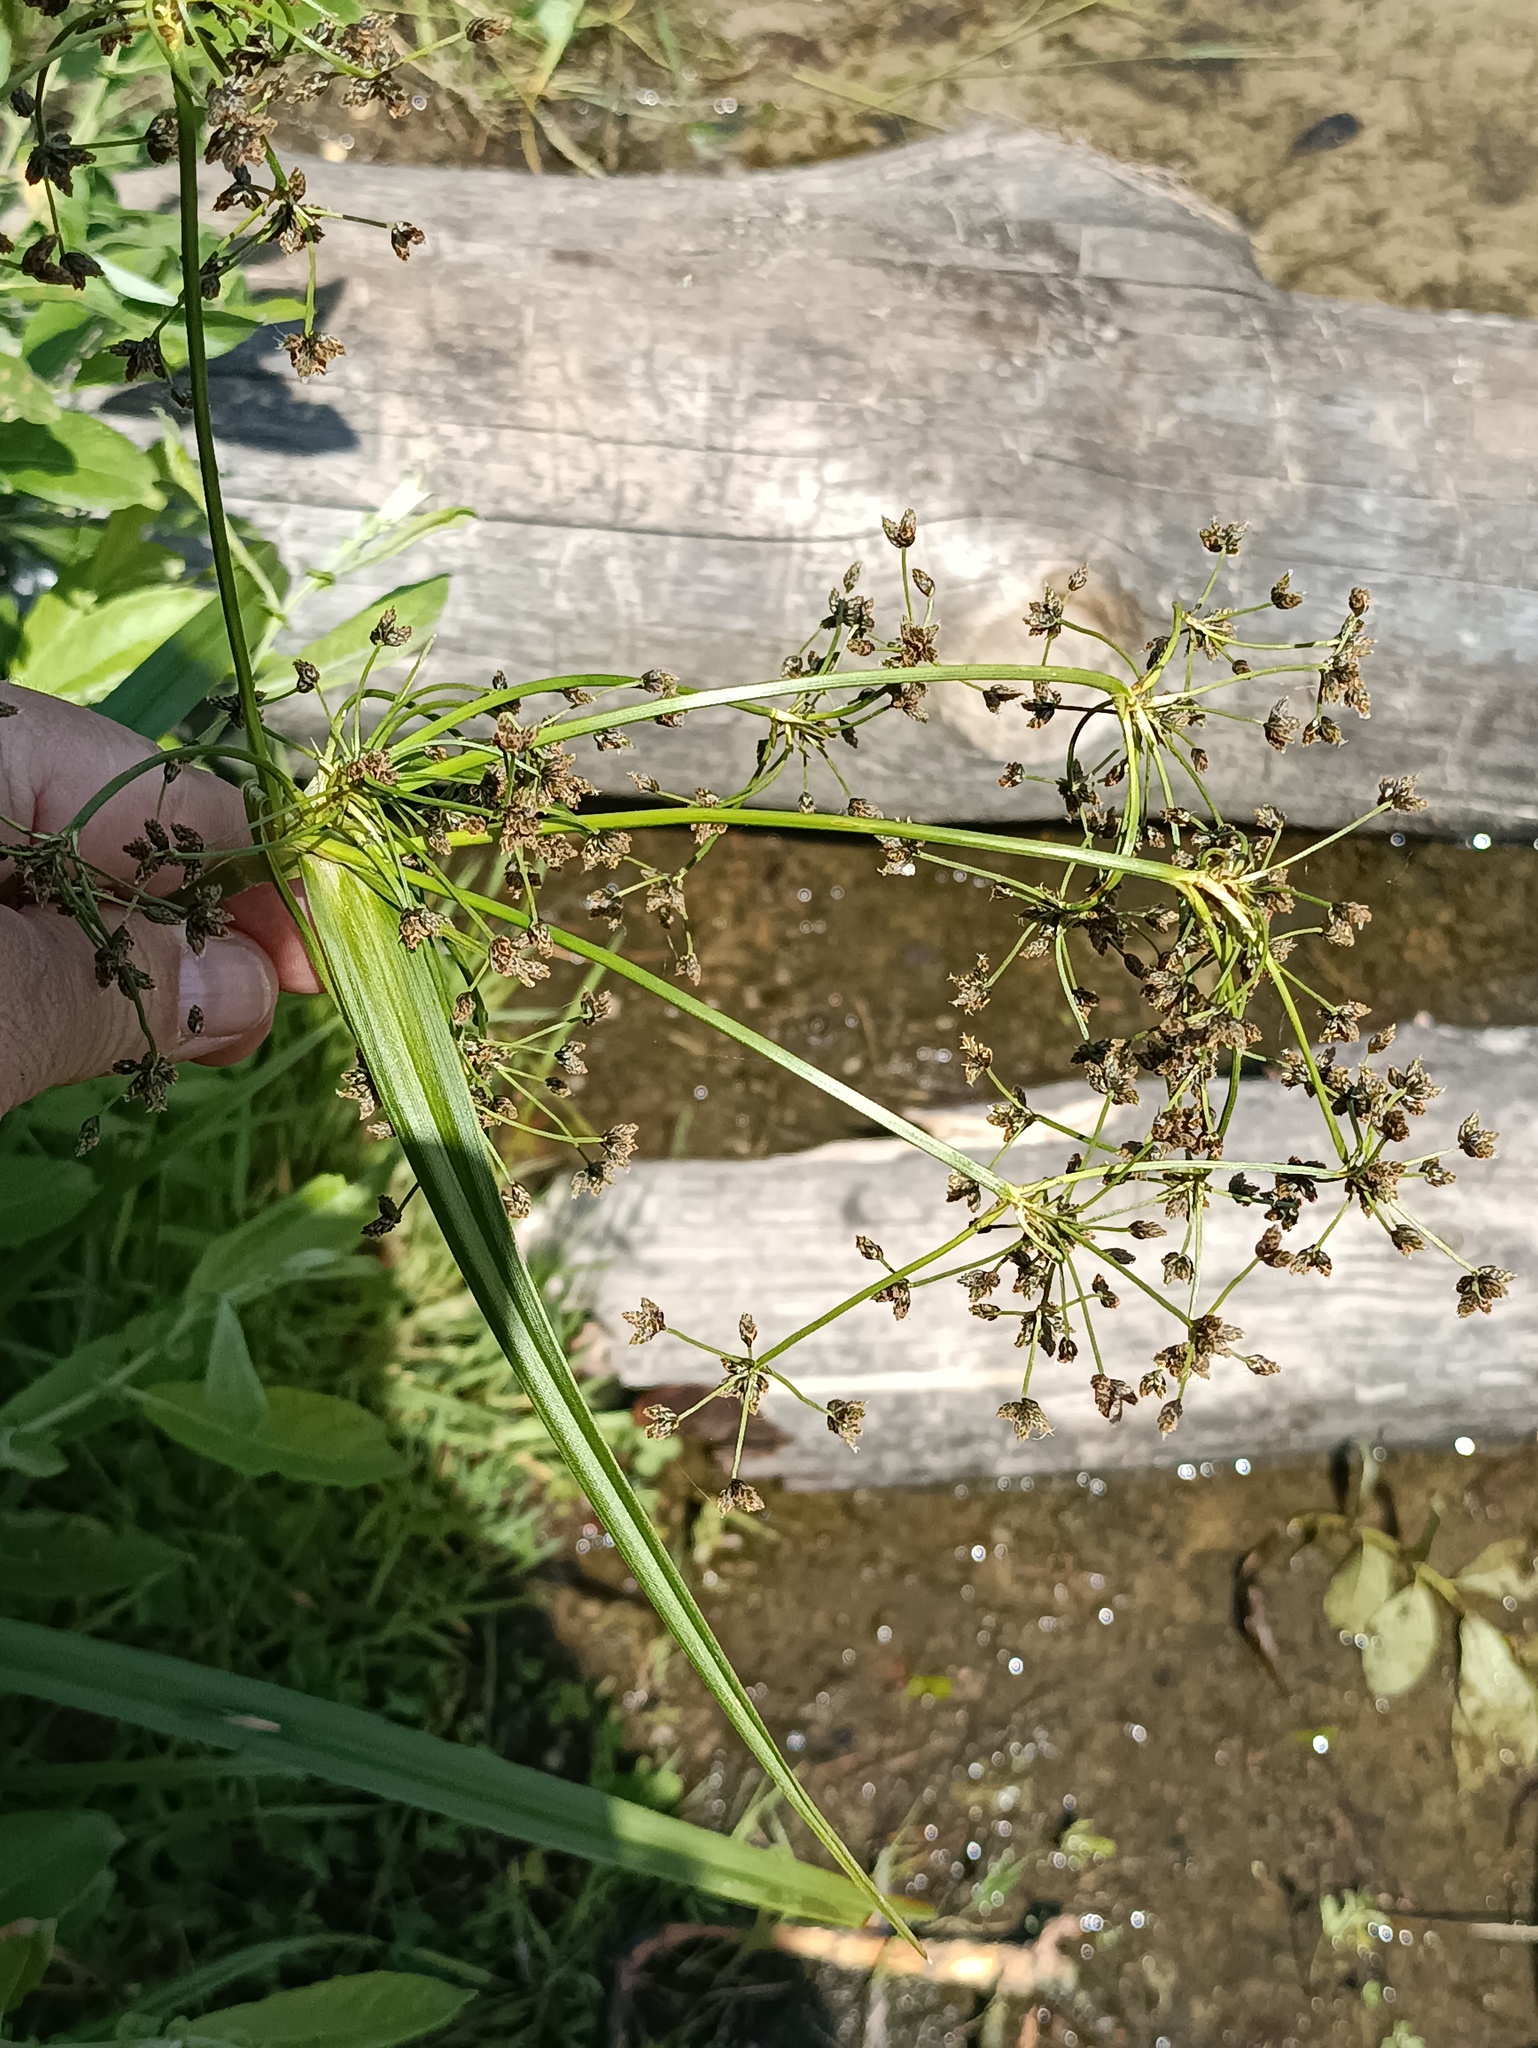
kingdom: Plantae
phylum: Tracheophyta
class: Liliopsida
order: Poales
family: Cyperaceae
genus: Scirpus
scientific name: Scirpus sylvaticus
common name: Wood club-rush
